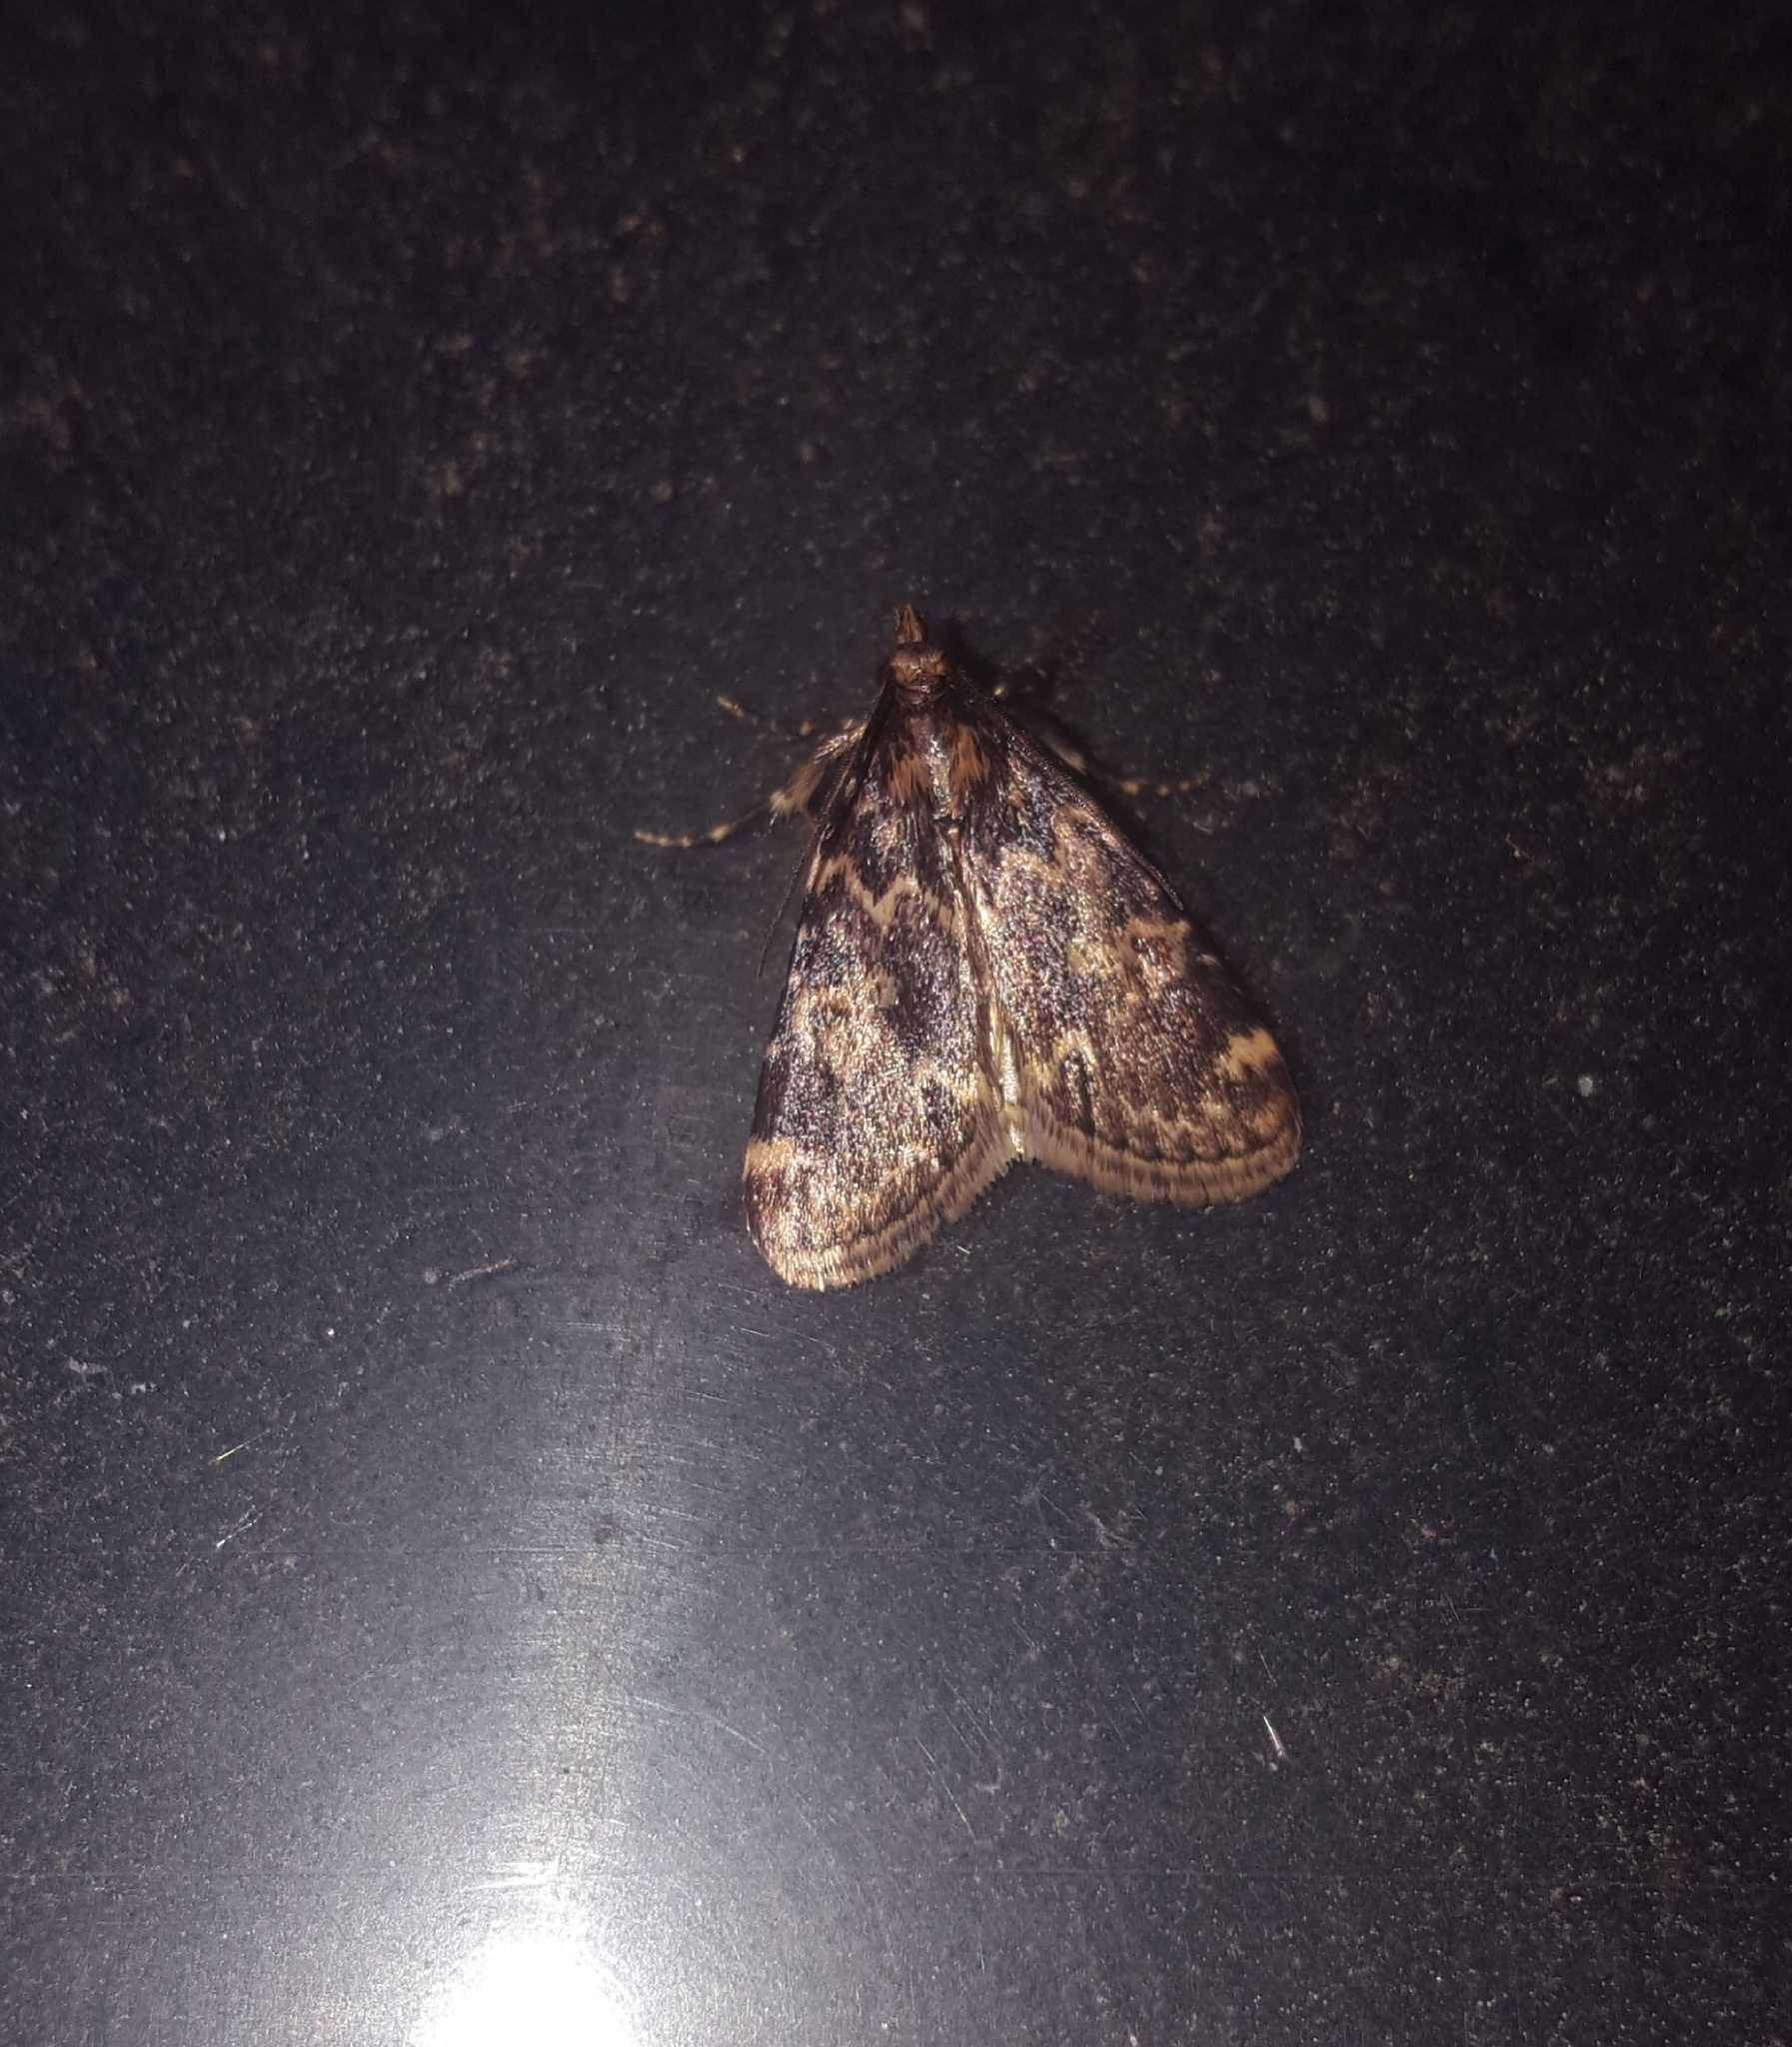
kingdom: Animalia
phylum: Arthropoda
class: Insecta
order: Lepidoptera
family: Erebidae
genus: Idia
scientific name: Idia lubricalis
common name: Twin-striped tabby
